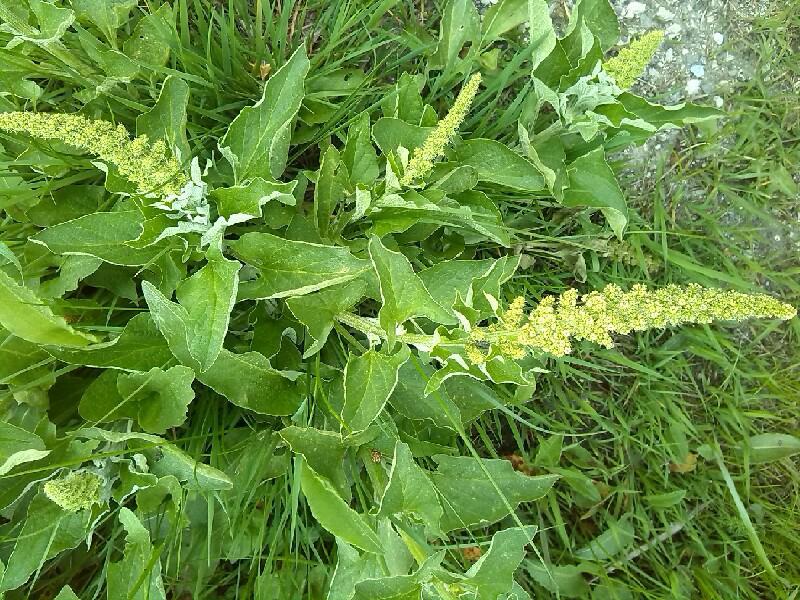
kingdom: Plantae
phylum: Tracheophyta
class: Magnoliopsida
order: Caryophyllales
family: Amaranthaceae
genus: Blitum
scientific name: Blitum bonus-henricus
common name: Good king henry
